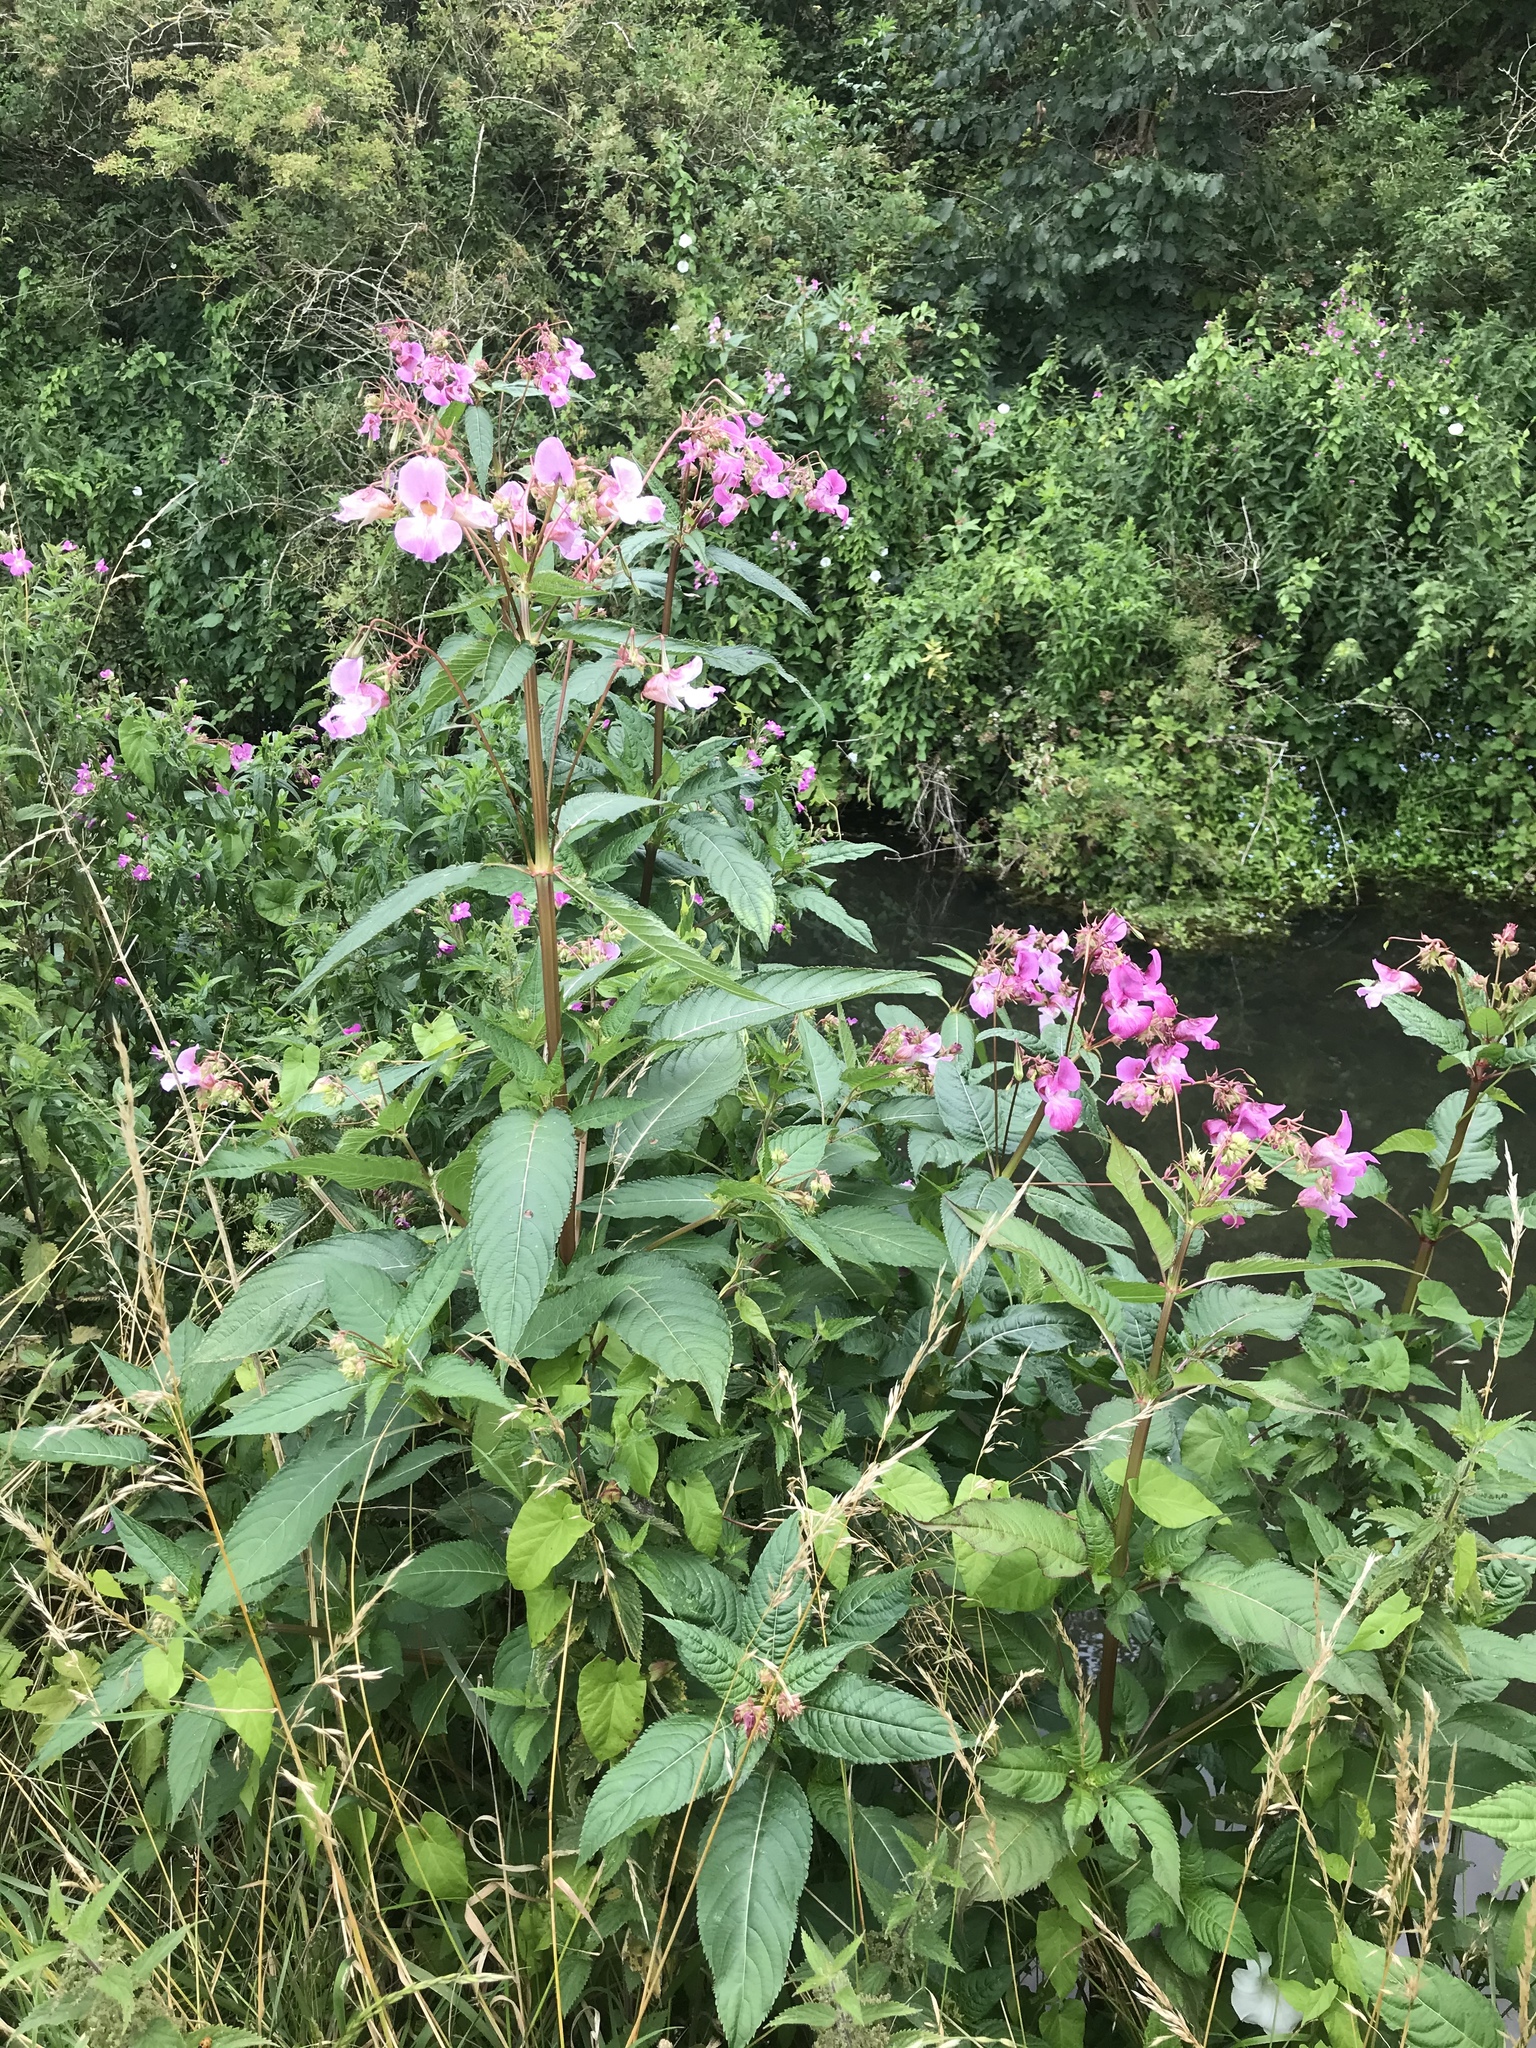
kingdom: Plantae
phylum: Tracheophyta
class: Magnoliopsida
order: Ericales
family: Balsaminaceae
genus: Impatiens
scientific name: Impatiens glandulifera
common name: Himalayan balsam
